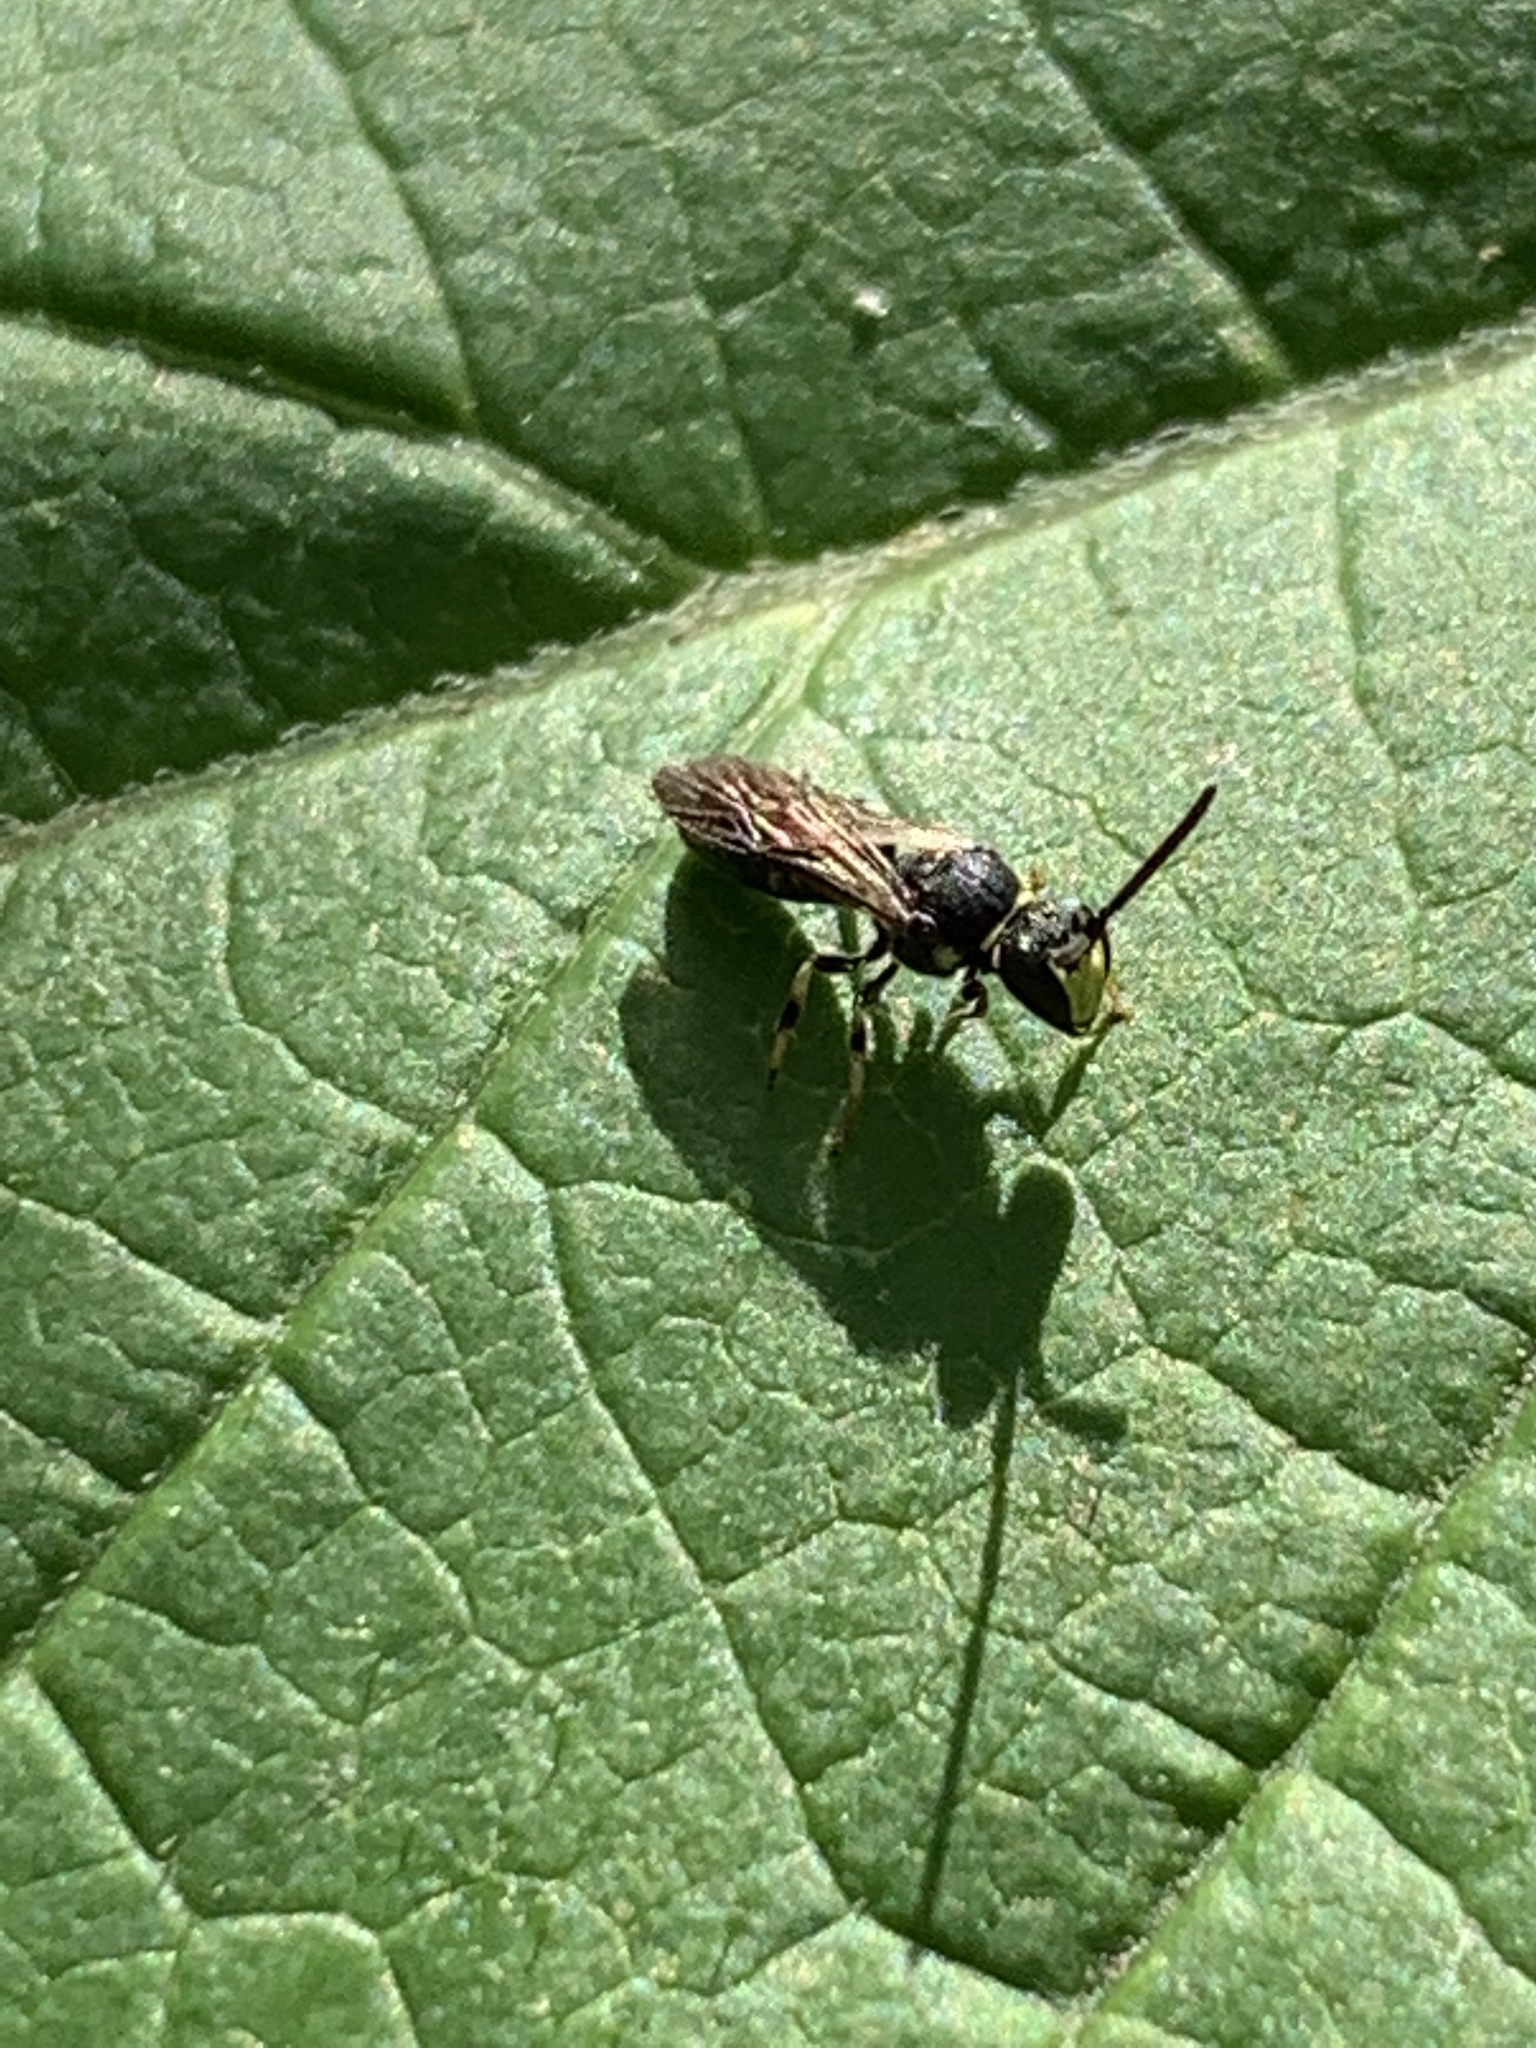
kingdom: Animalia
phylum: Arthropoda
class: Insecta
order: Hymenoptera
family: Colletidae
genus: Hylaeus
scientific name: Hylaeus modestus
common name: Yellow-faced bee
